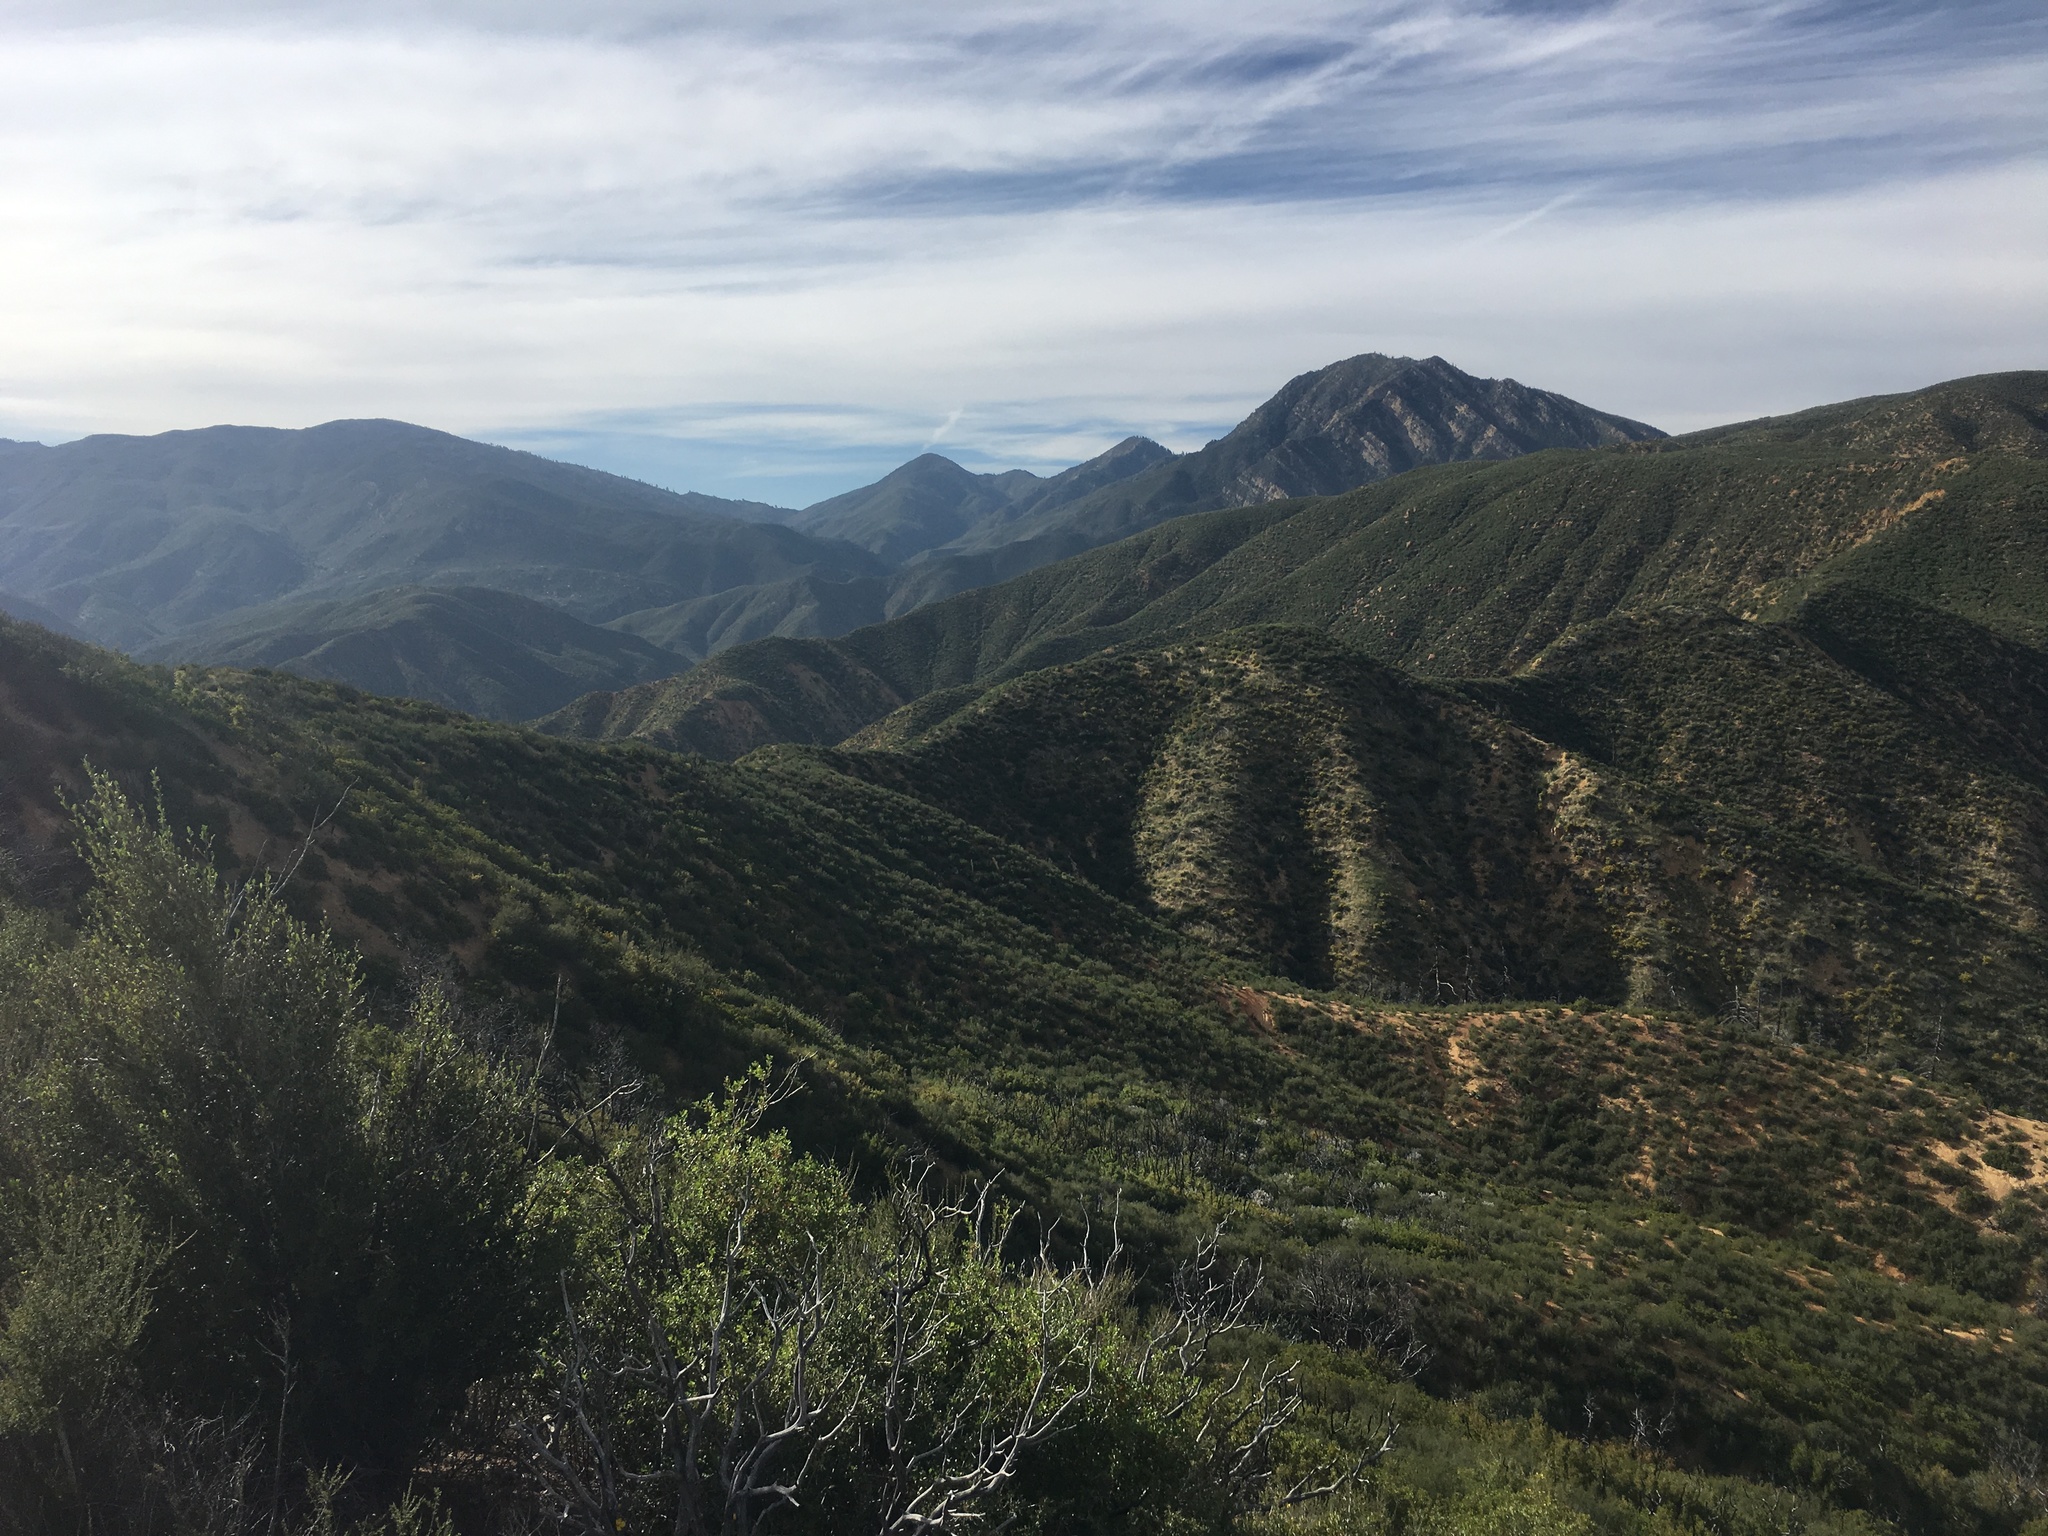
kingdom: Plantae
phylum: Tracheophyta
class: Magnoliopsida
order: Rosales
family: Rosaceae
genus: Adenostoma
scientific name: Adenostoma fasciculatum
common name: Chamise
